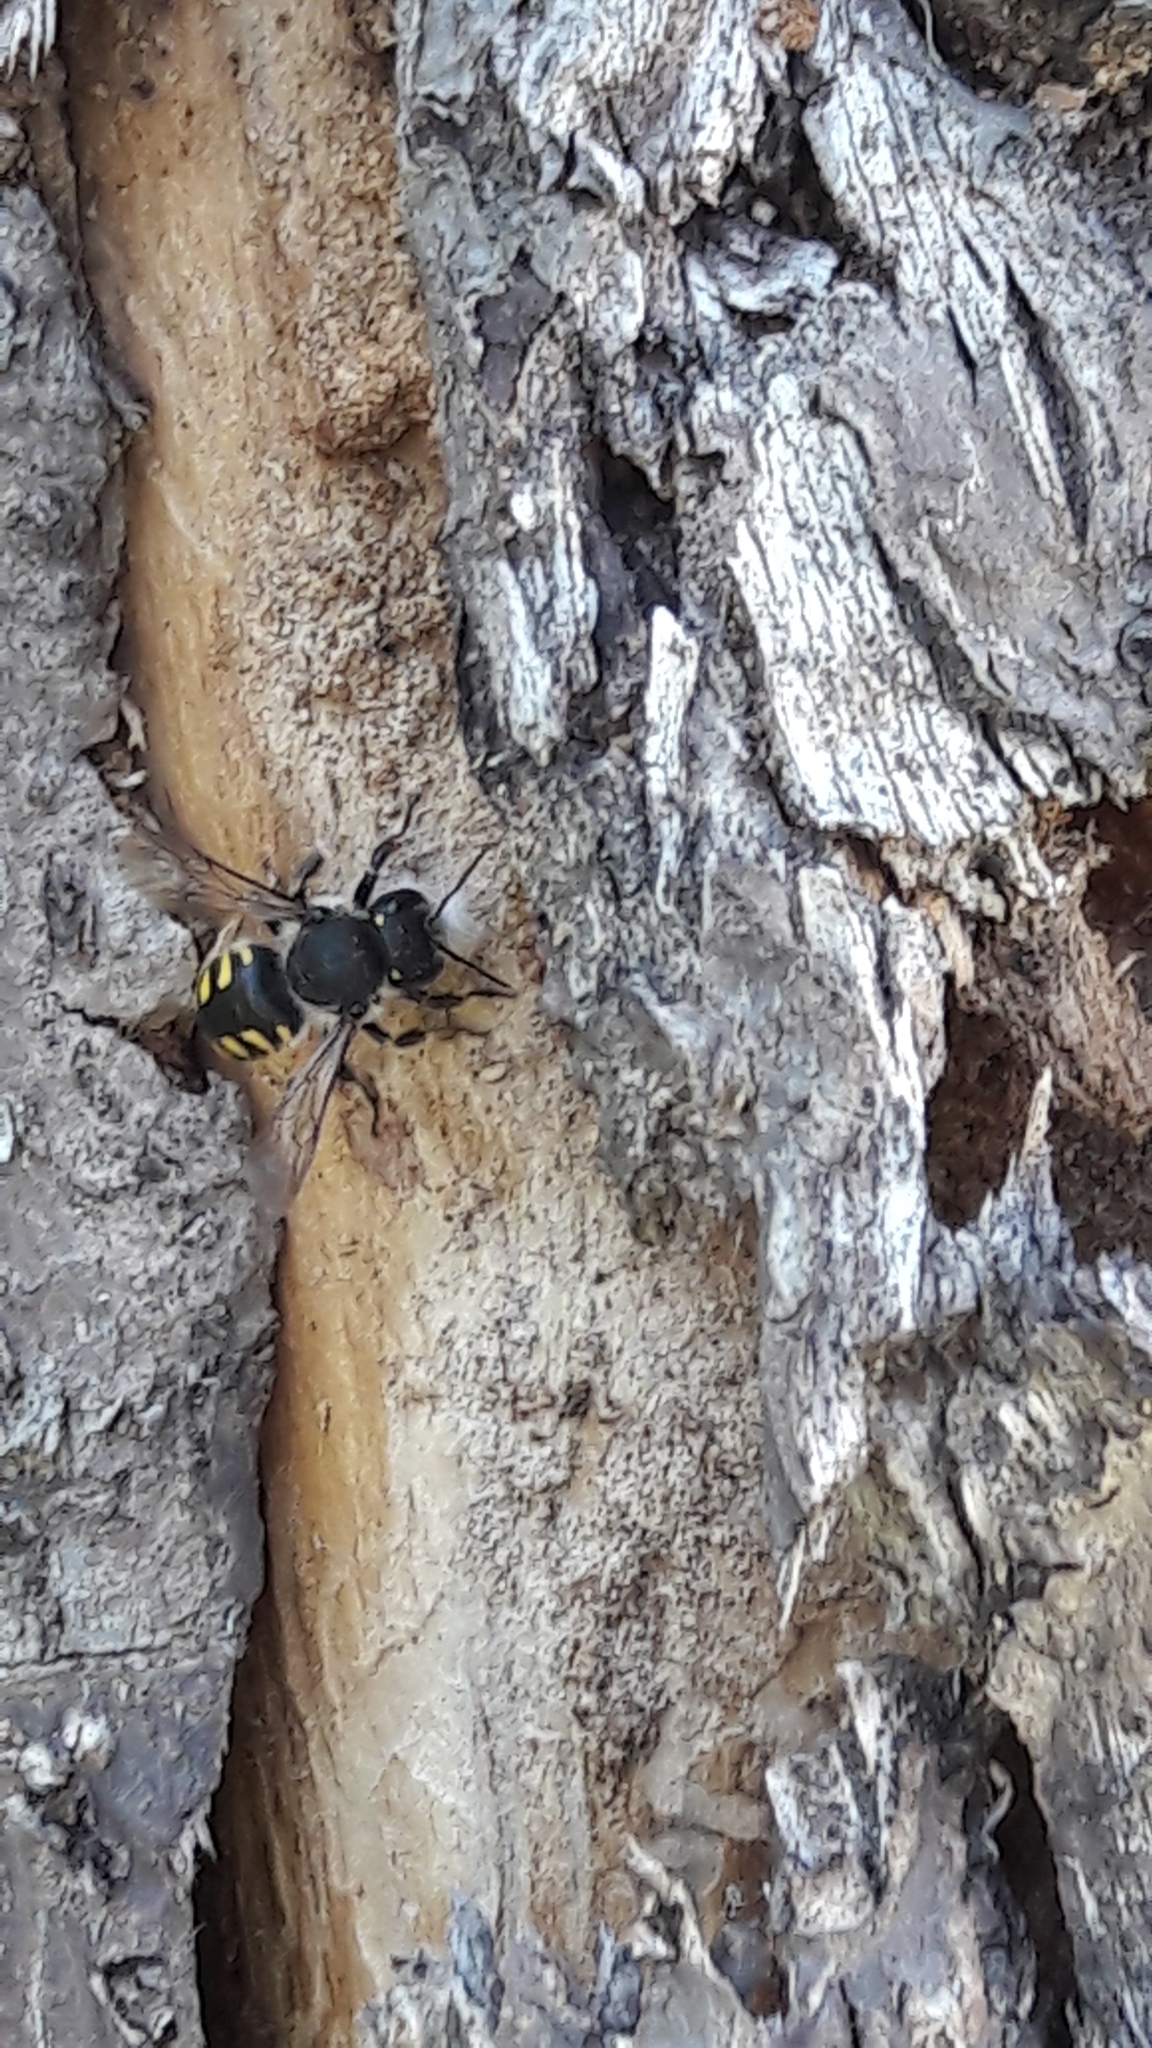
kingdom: Animalia
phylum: Arthropoda
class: Insecta
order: Hymenoptera
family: Megachilidae
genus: Anthidium
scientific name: Anthidium septemspinosum
